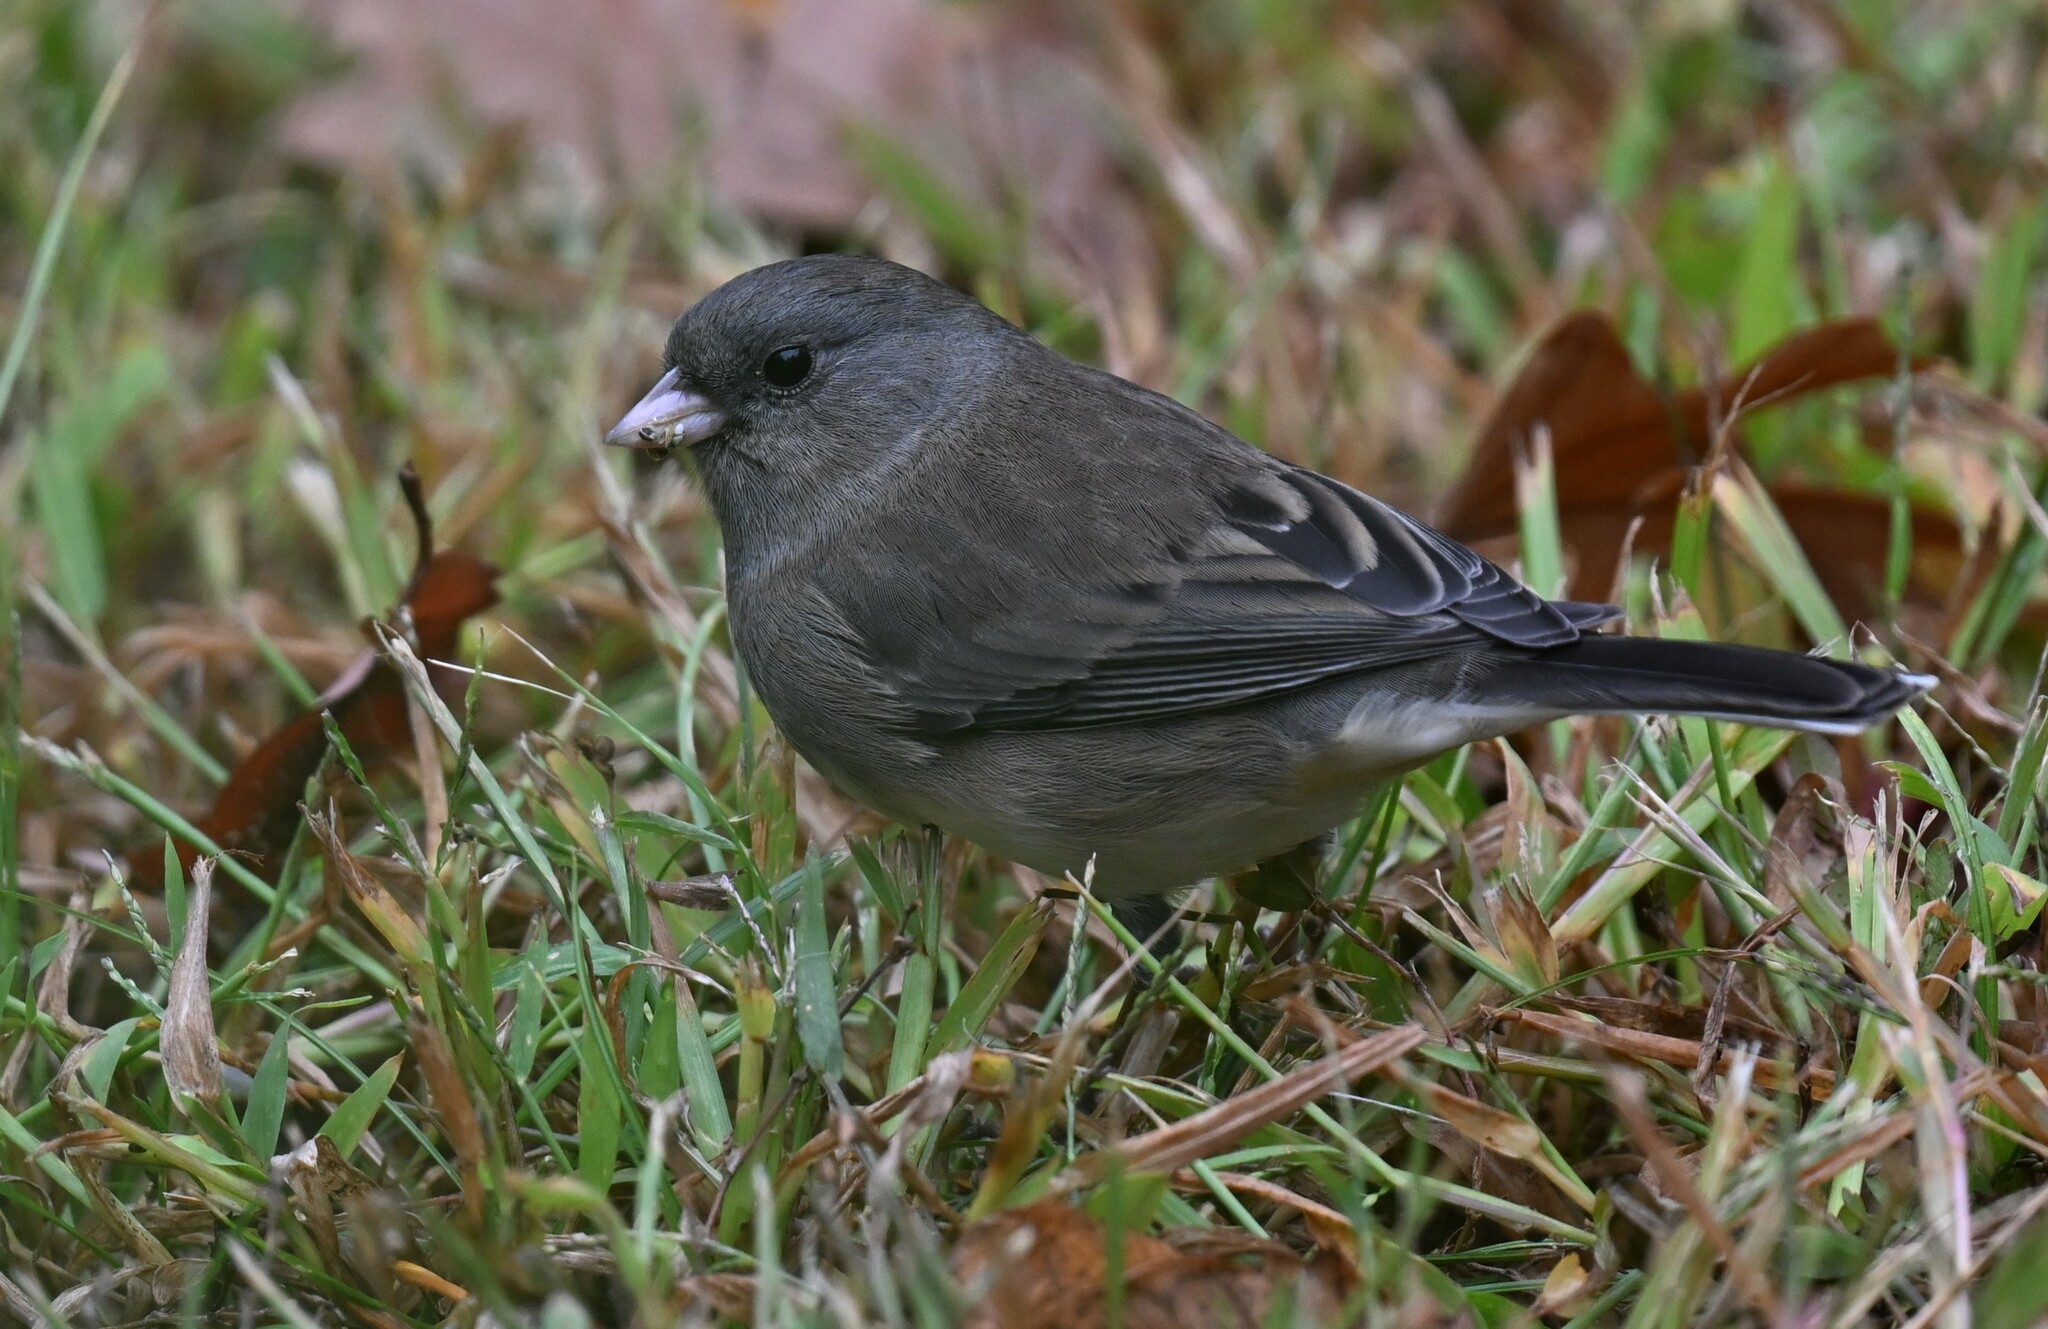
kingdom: Animalia
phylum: Chordata
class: Aves
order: Passeriformes
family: Passerellidae
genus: Junco
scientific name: Junco hyemalis
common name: Dark-eyed junco
